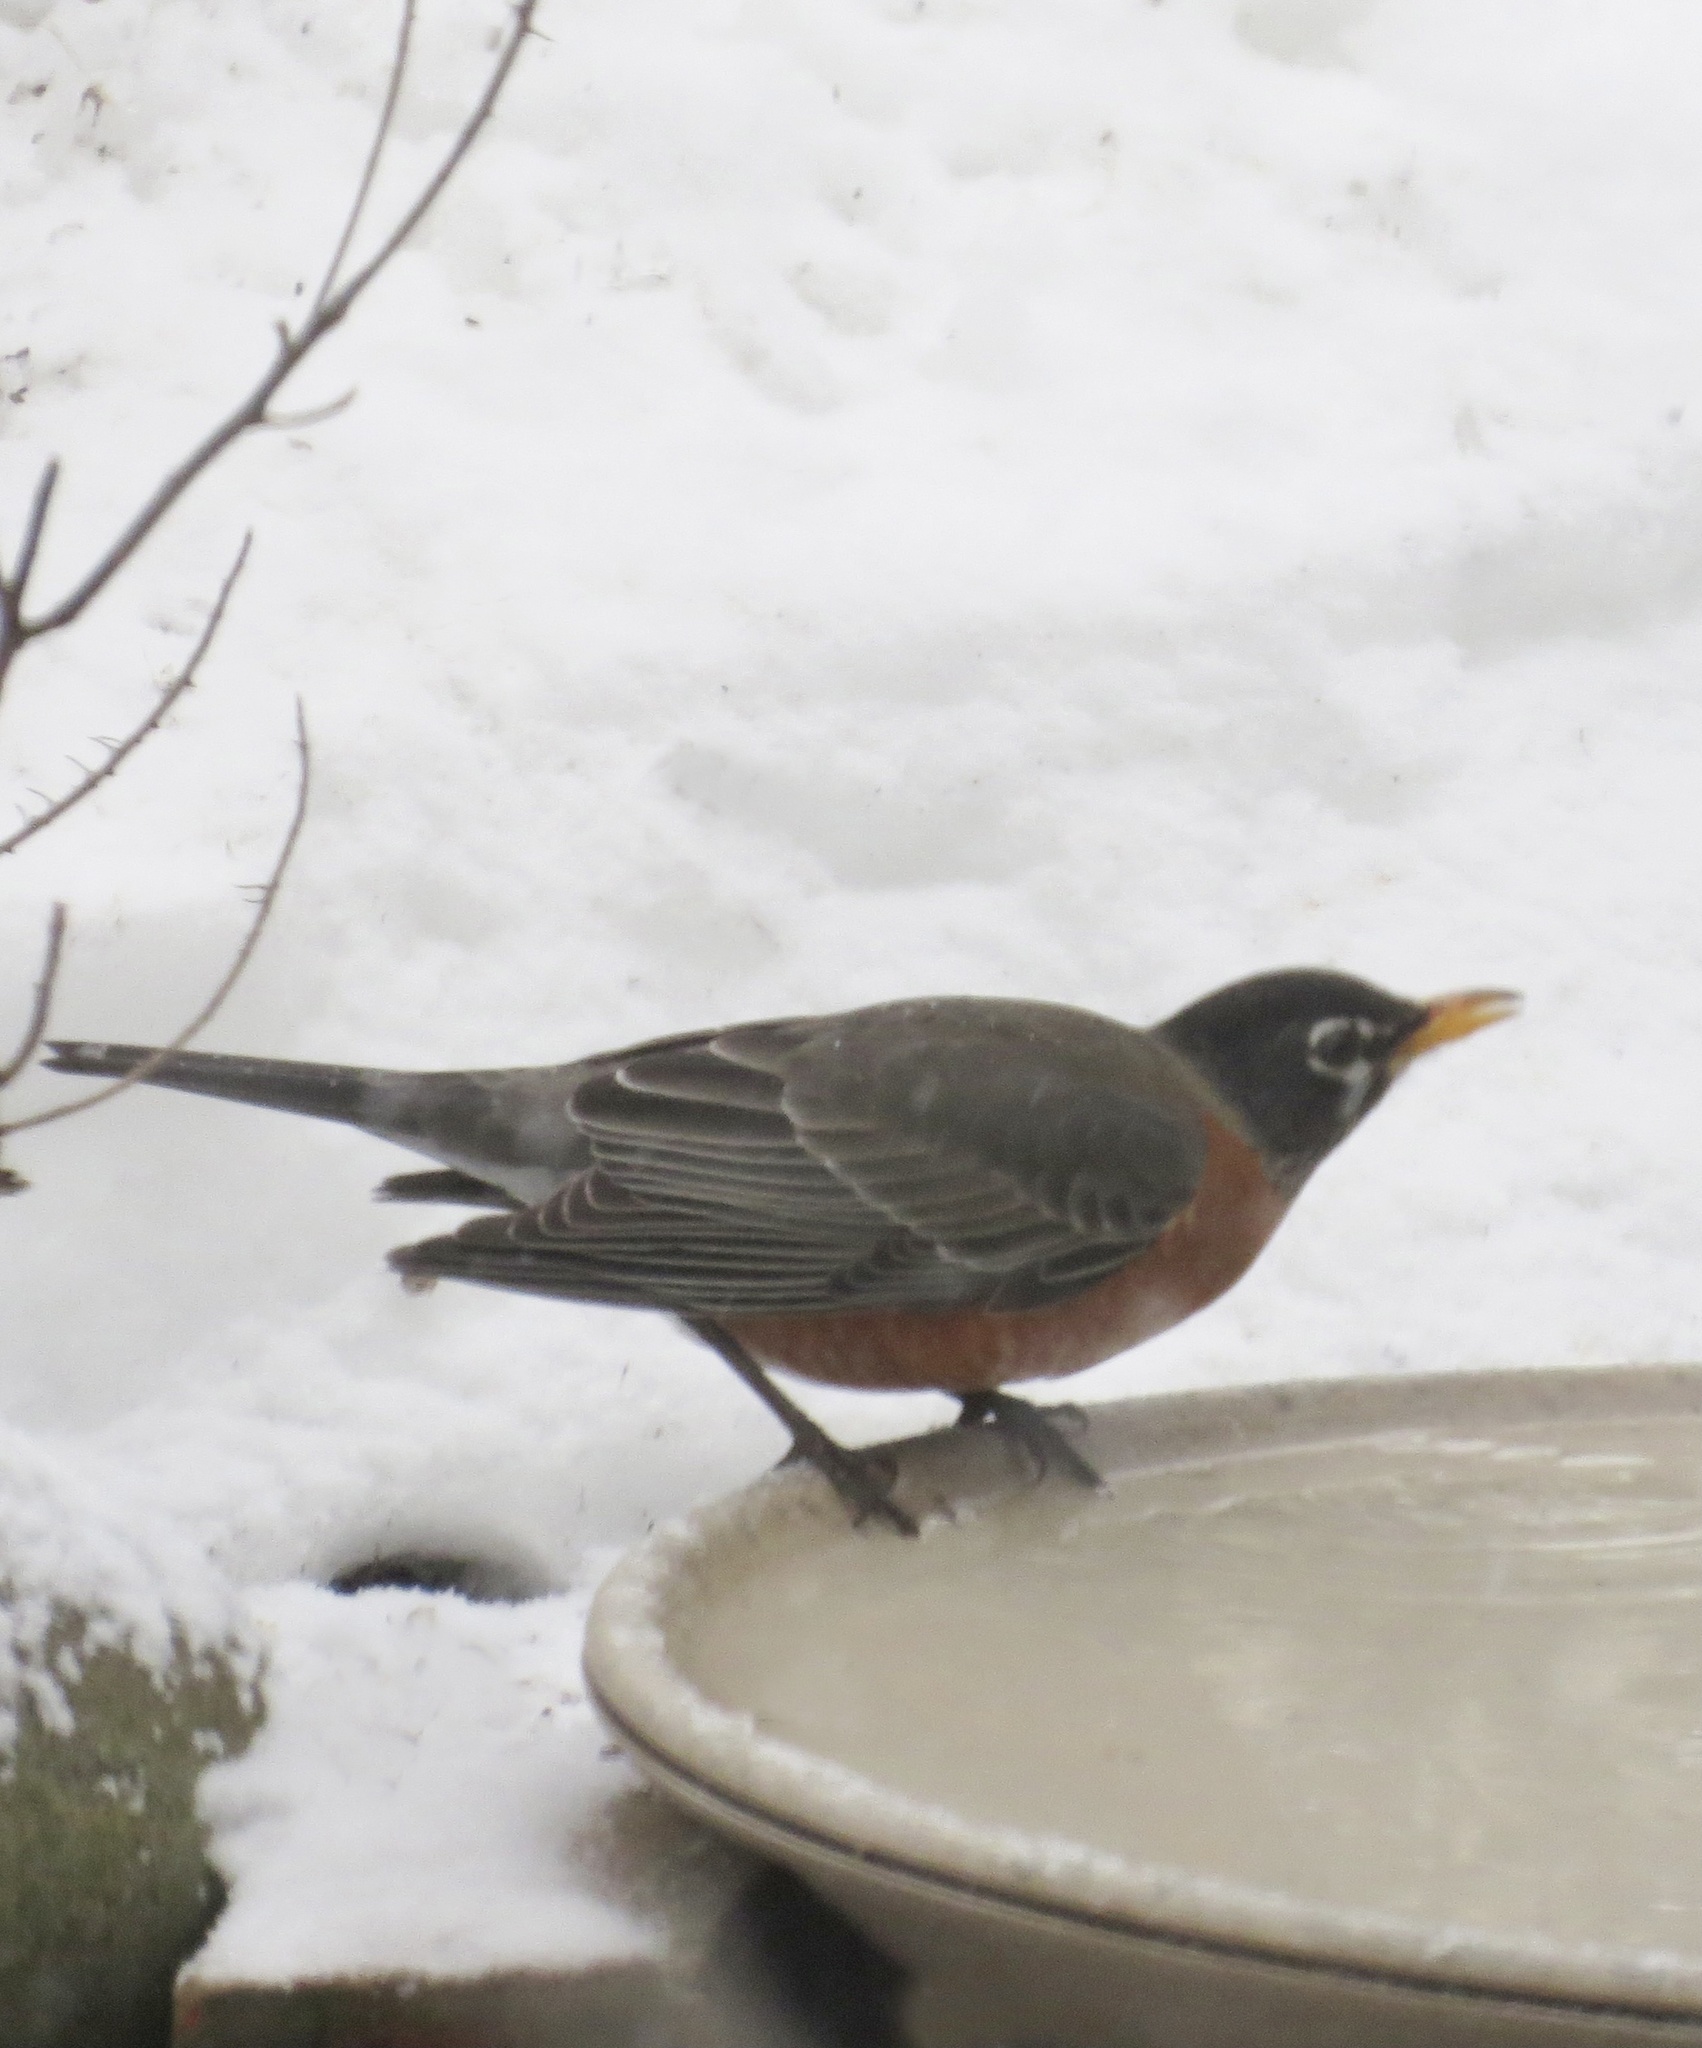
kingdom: Animalia
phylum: Chordata
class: Aves
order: Passeriformes
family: Turdidae
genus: Turdus
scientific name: Turdus migratorius
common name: American robin
